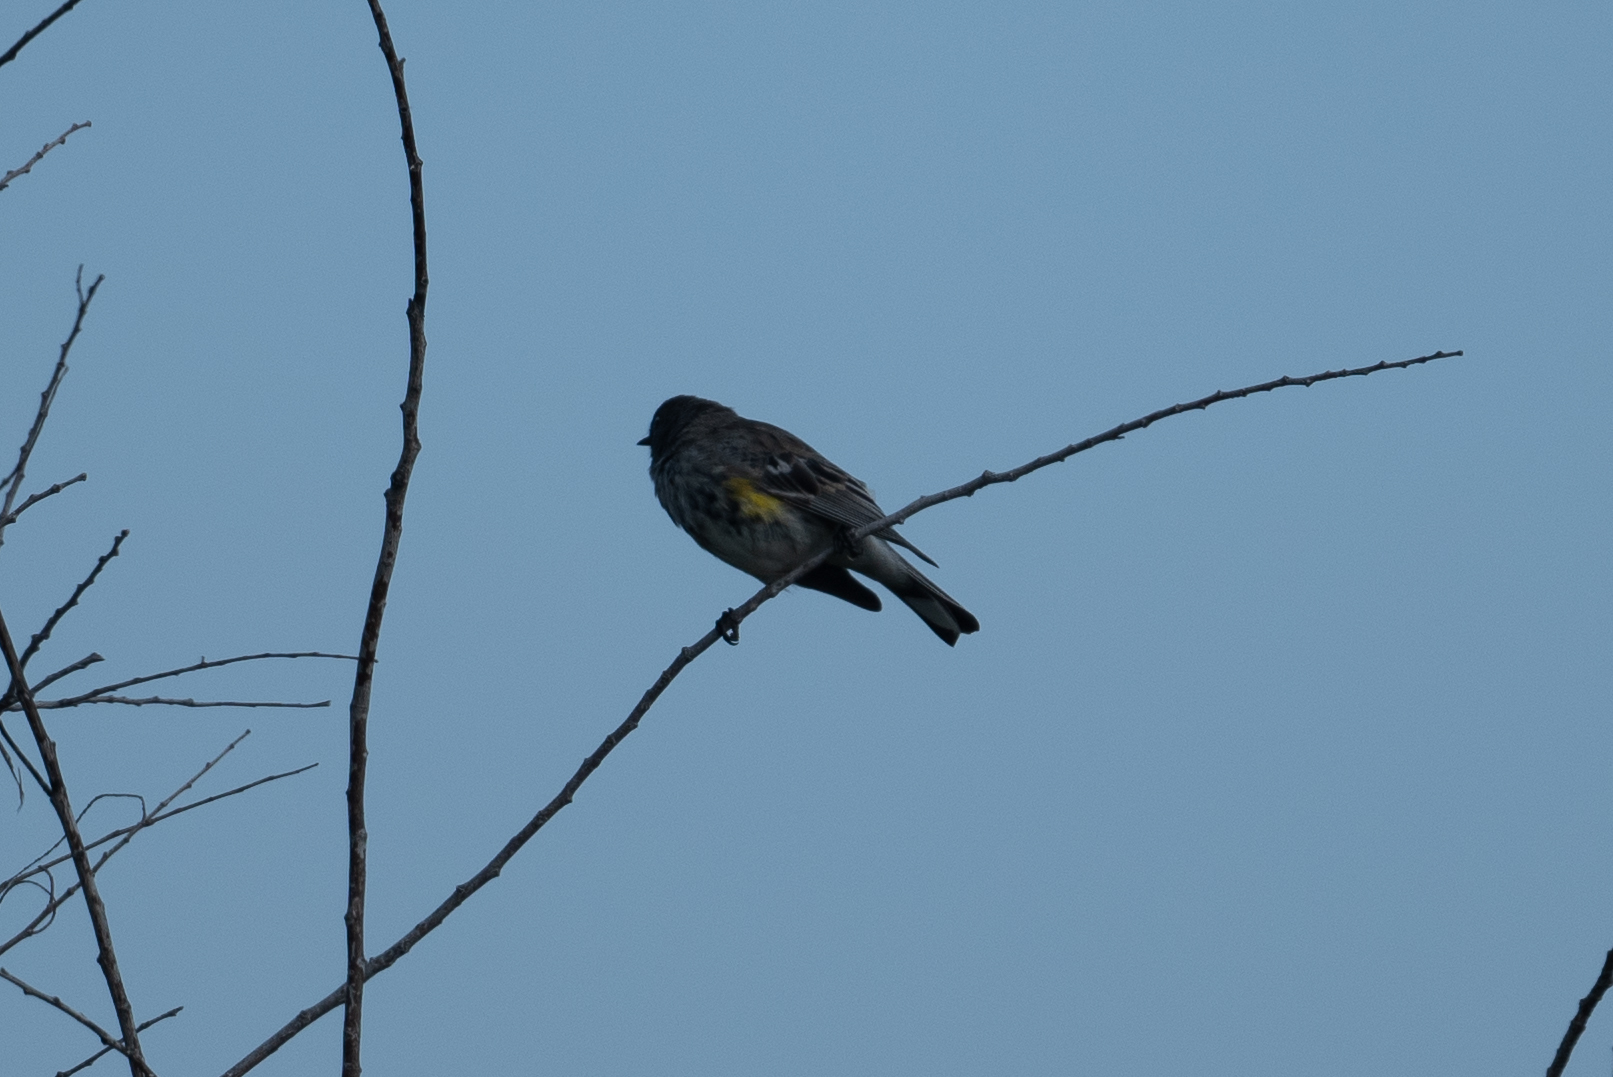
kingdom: Animalia
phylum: Chordata
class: Aves
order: Passeriformes
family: Parulidae
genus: Setophaga
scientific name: Setophaga coronata
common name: Myrtle warbler
